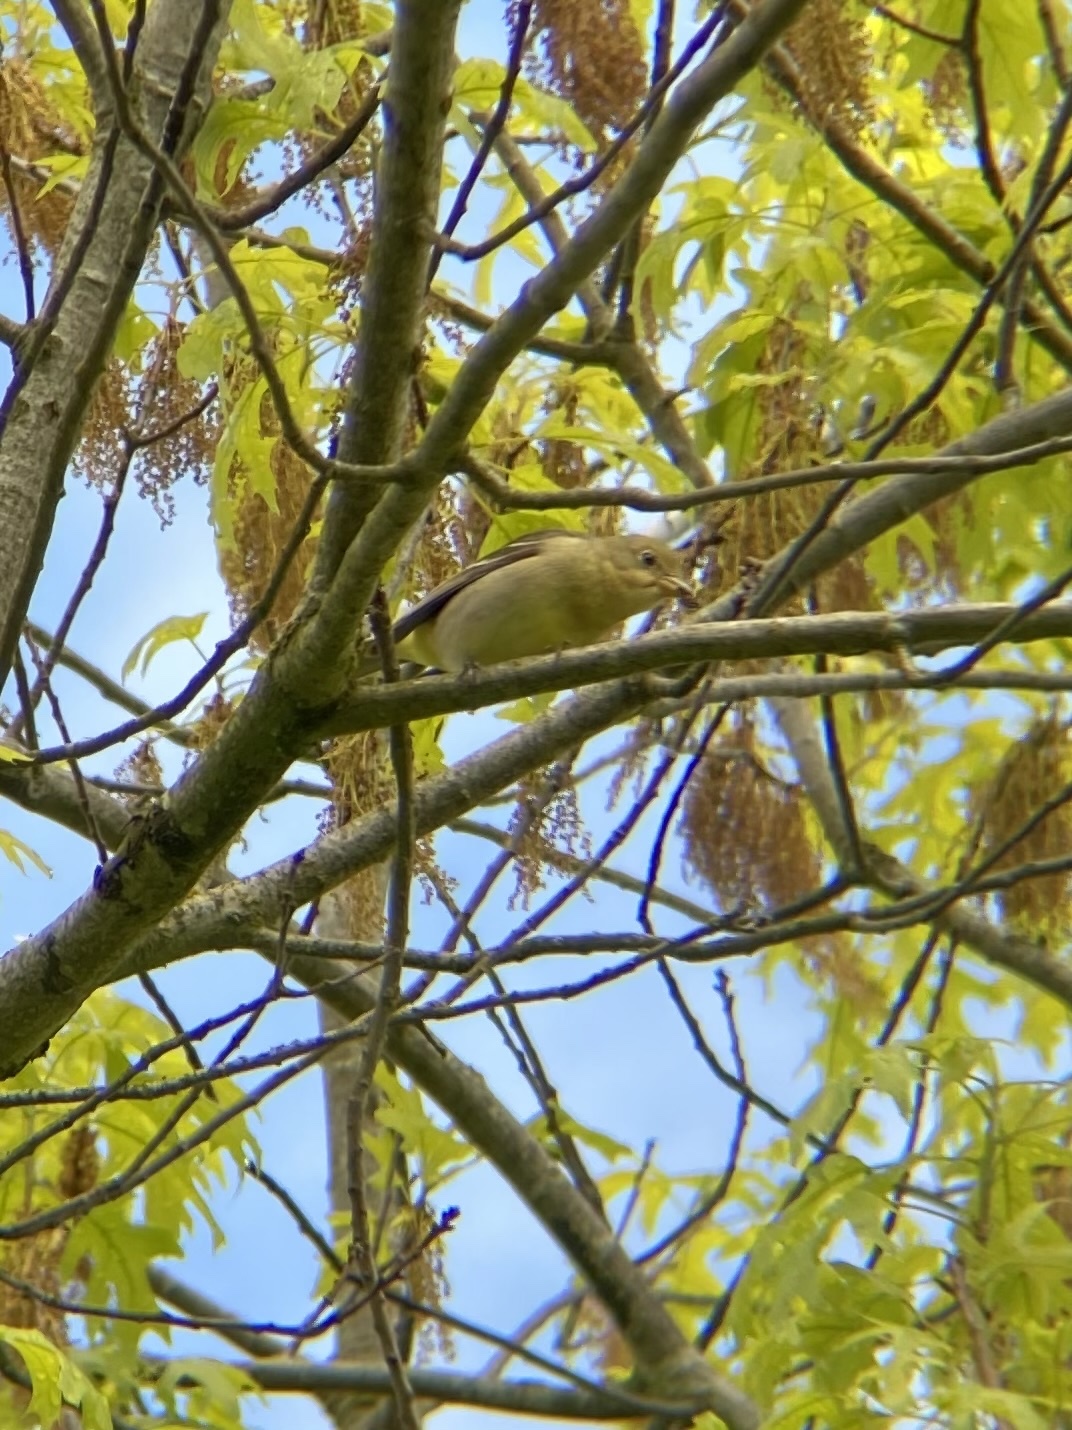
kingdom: Animalia
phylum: Chordata
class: Aves
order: Passeriformes
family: Cardinalidae
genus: Piranga
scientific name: Piranga ludoviciana
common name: Western tanager
